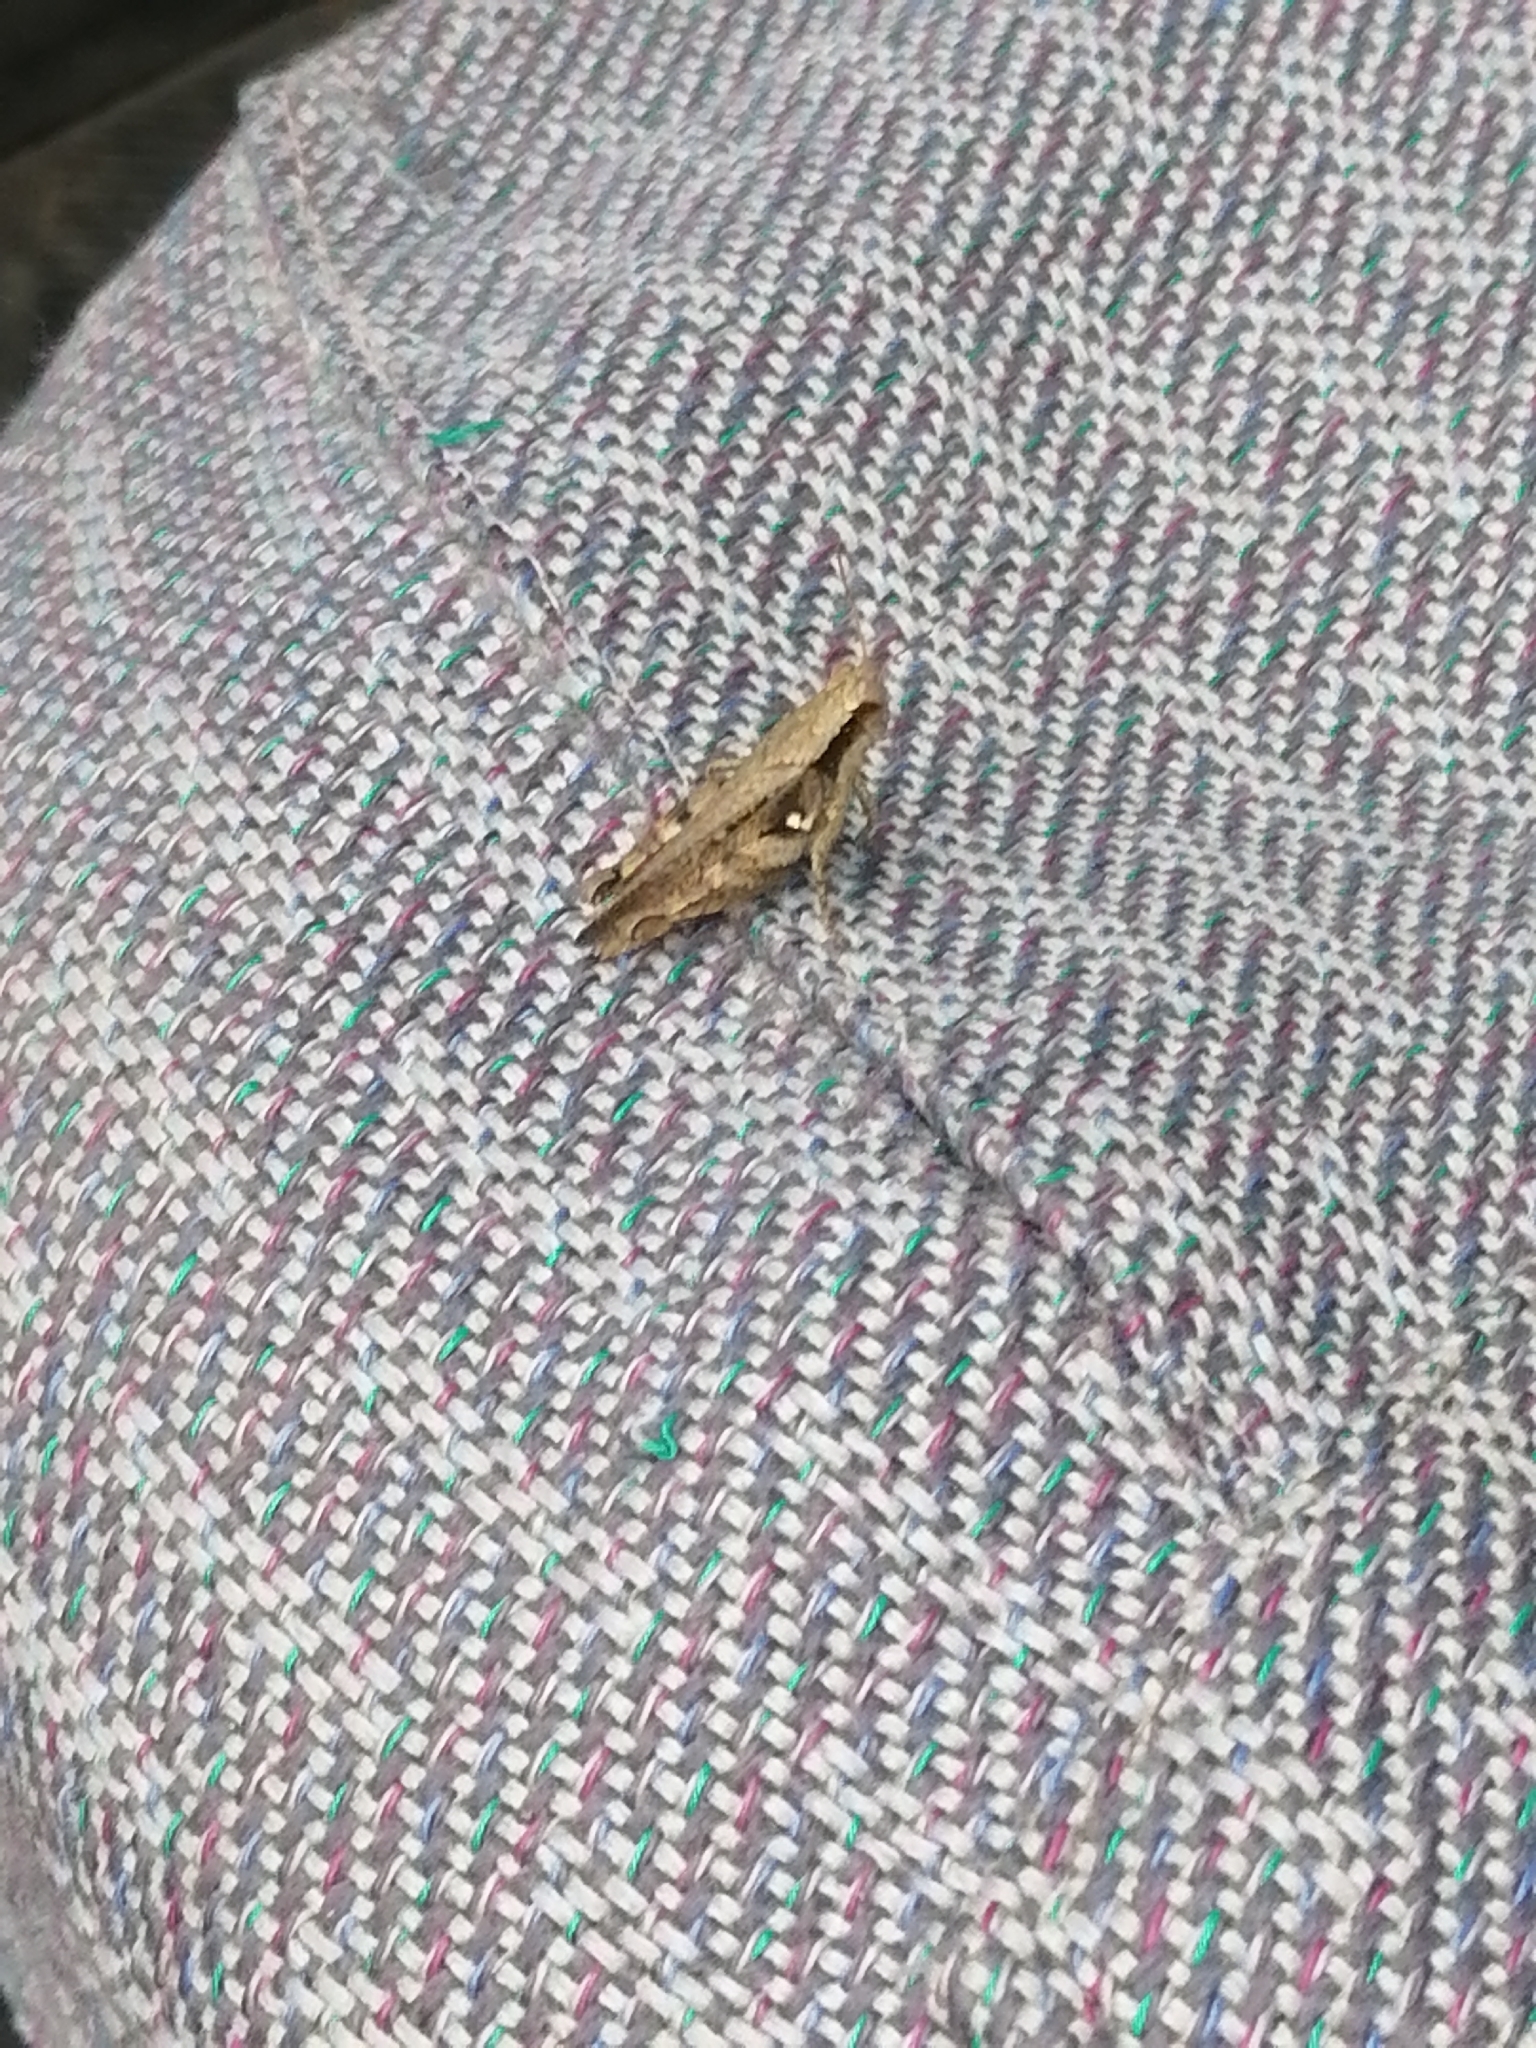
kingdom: Animalia
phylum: Arthropoda
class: Insecta
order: Orthoptera
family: Acrididae
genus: Aidemona
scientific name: Aidemona azteca
